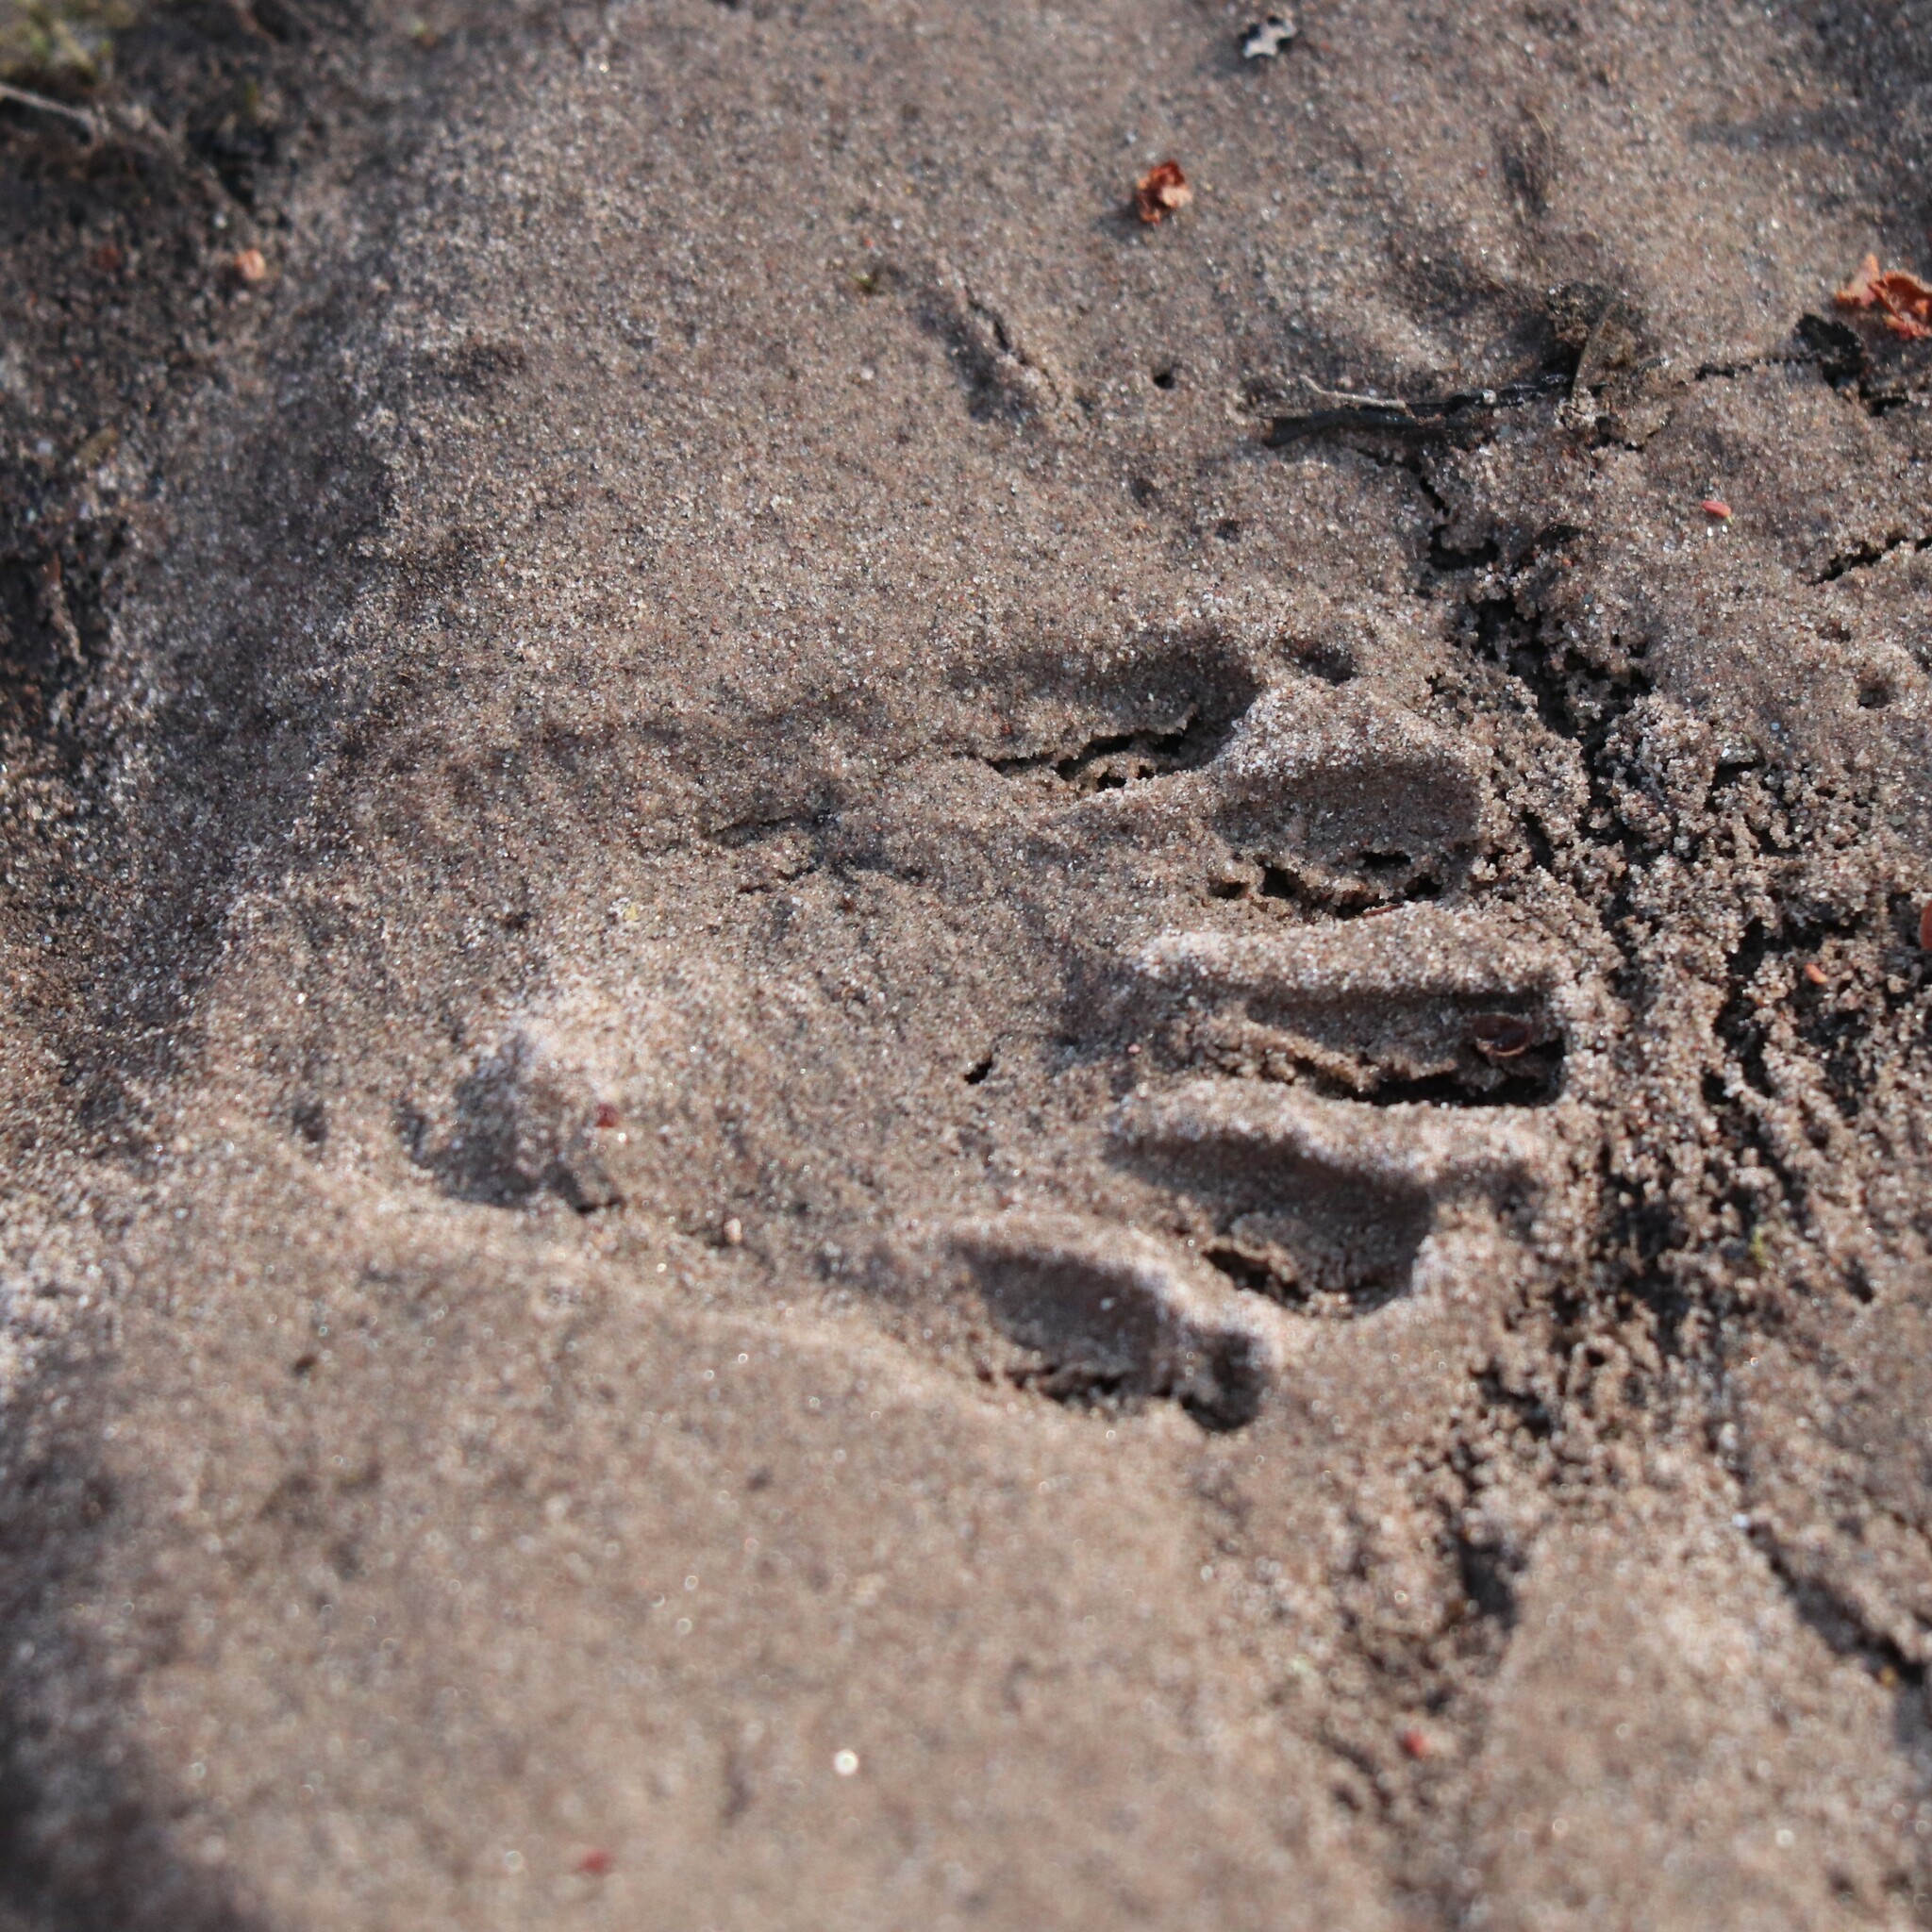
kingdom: Animalia
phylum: Chordata
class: Mammalia
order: Carnivora
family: Procyonidae
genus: Procyon
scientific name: Procyon lotor
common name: Raccoon
